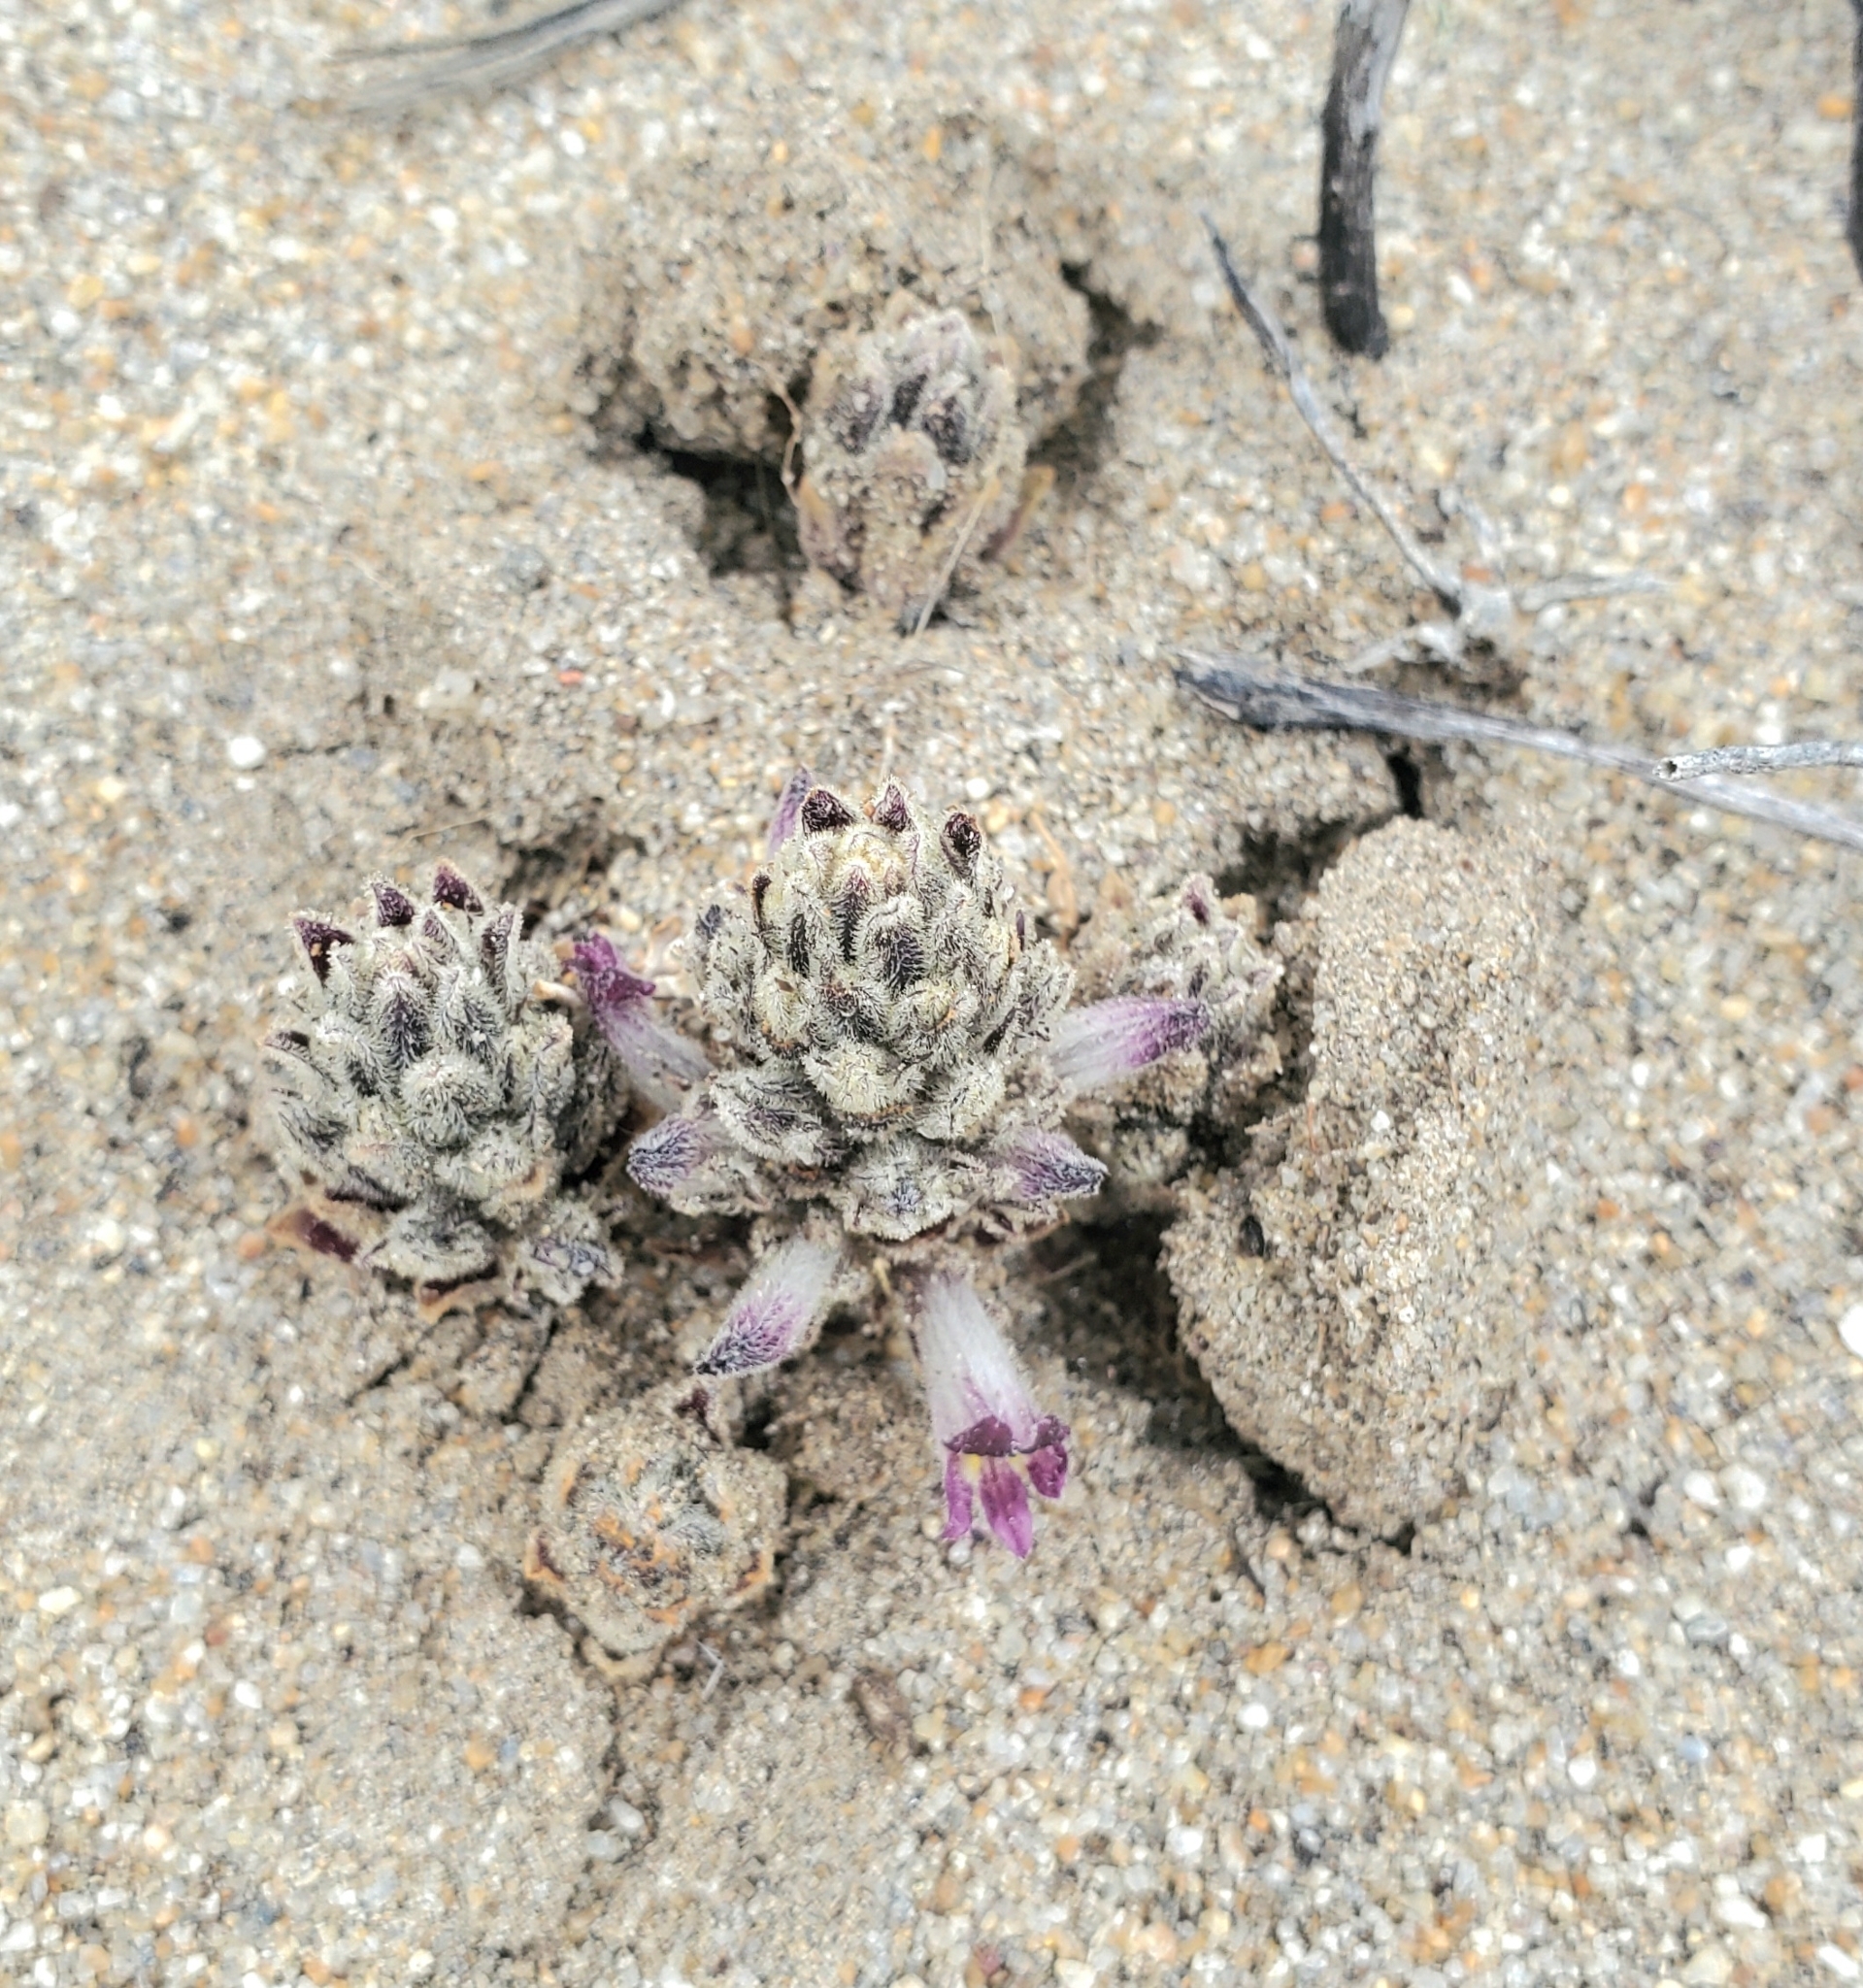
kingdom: Plantae
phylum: Tracheophyta
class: Magnoliopsida
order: Lamiales
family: Orobanchaceae
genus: Aphyllon
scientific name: Aphyllon cooperi
